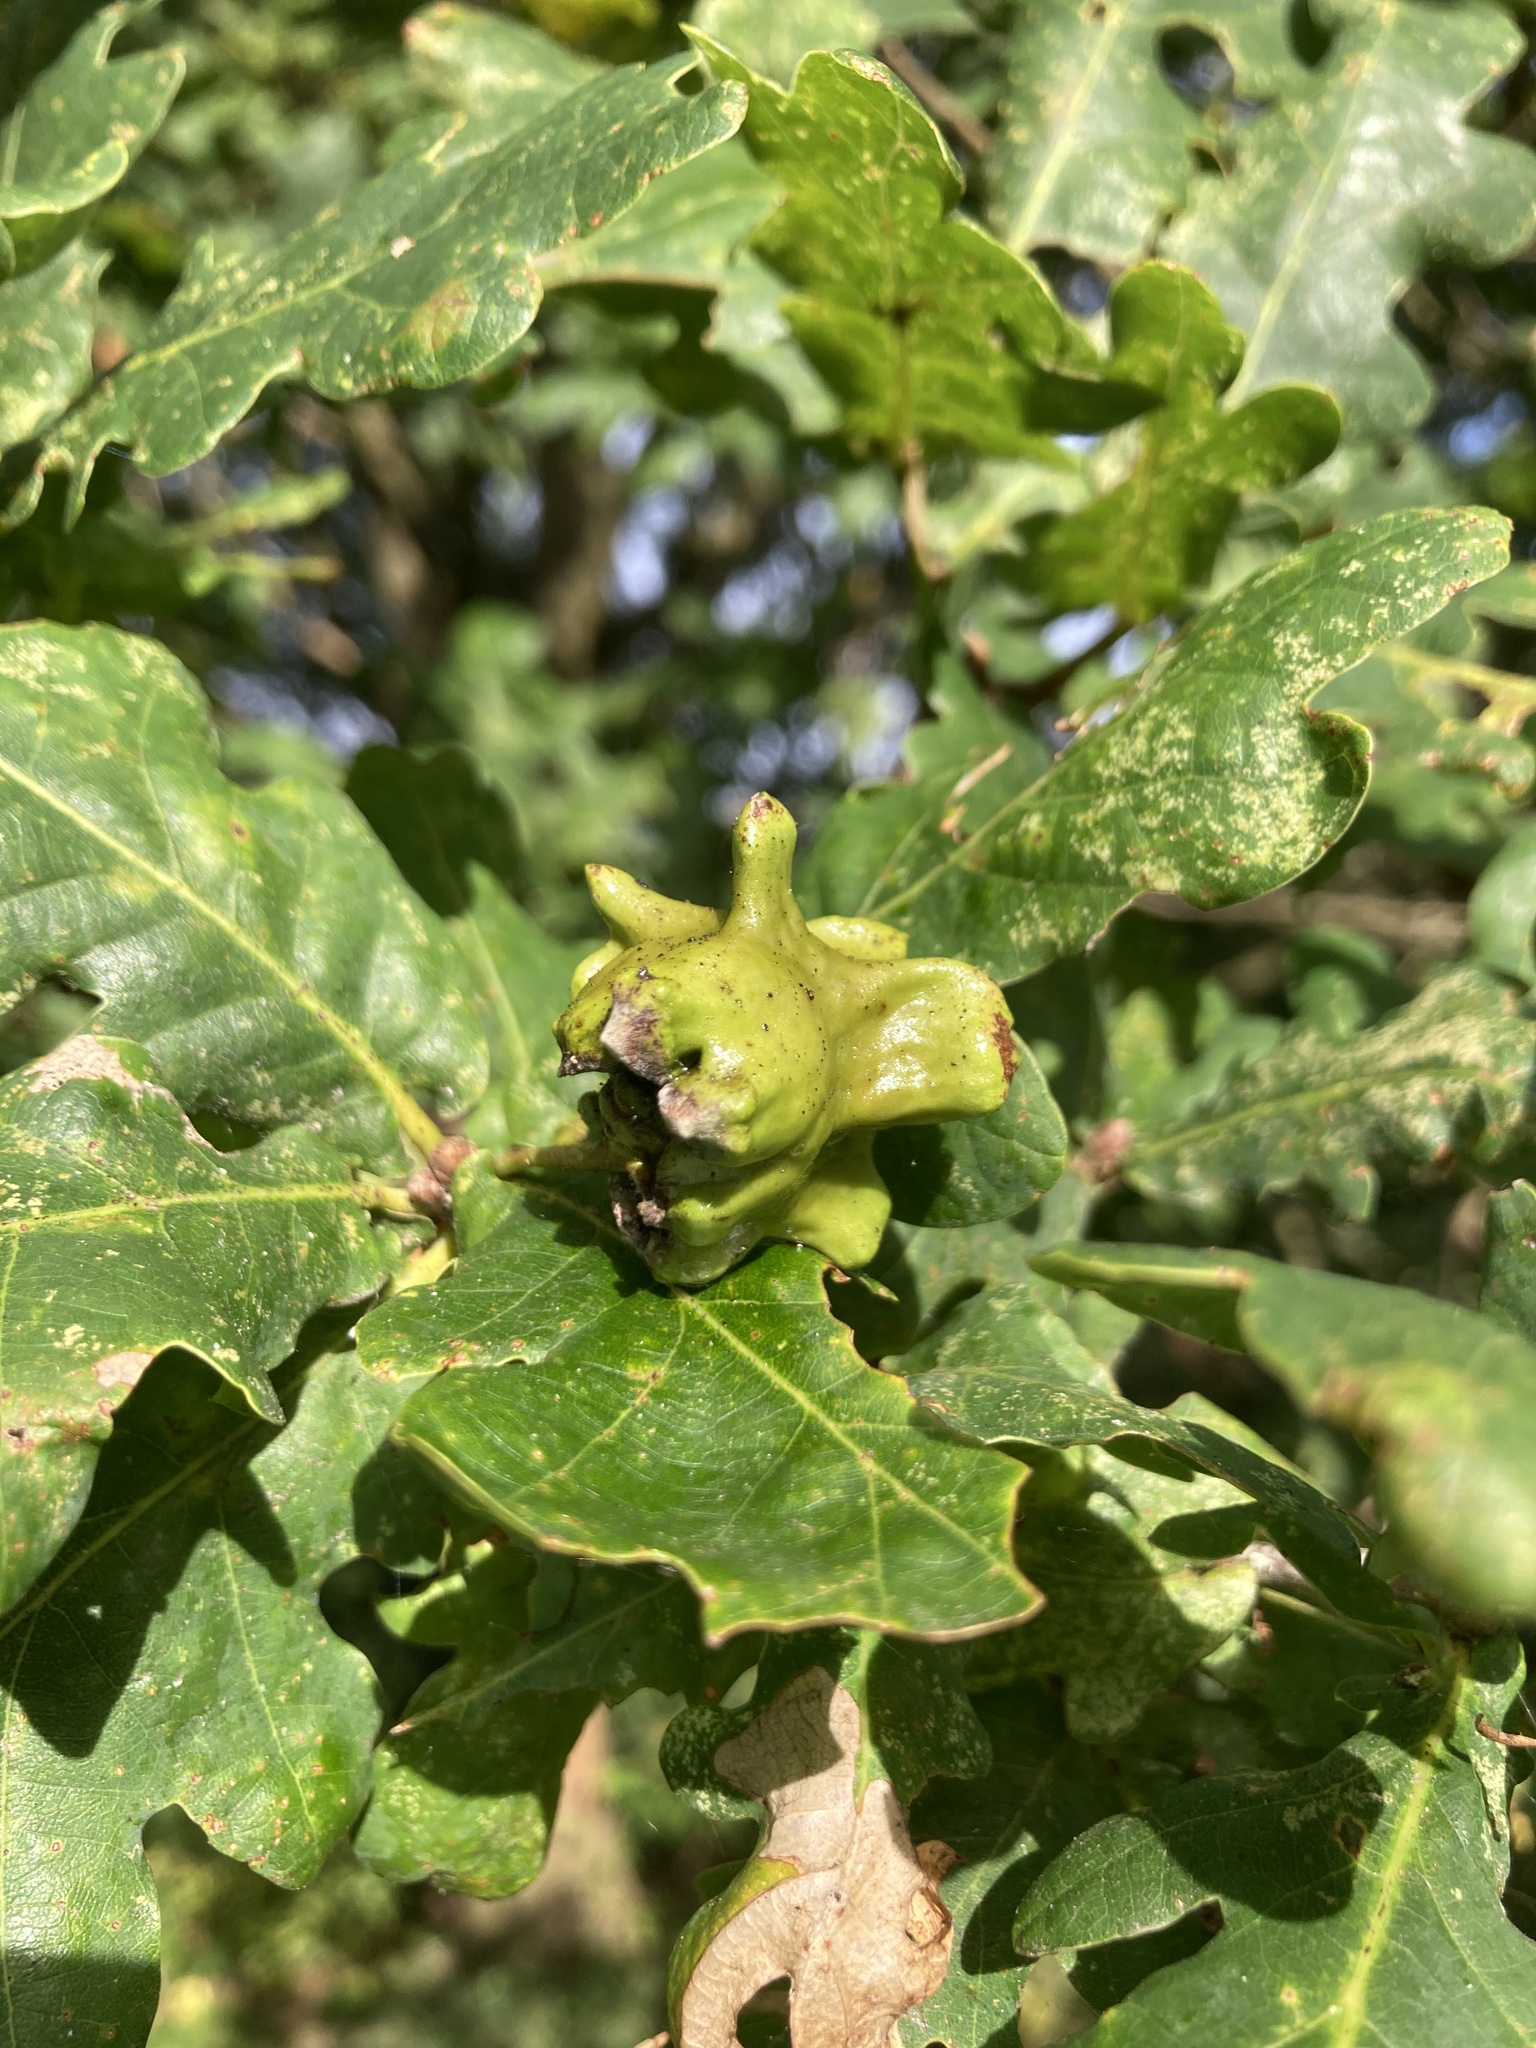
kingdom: Animalia
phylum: Arthropoda
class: Insecta
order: Hymenoptera
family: Cynipidae
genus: Andricus
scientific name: Andricus quercuscalicis
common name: Knopper gall
